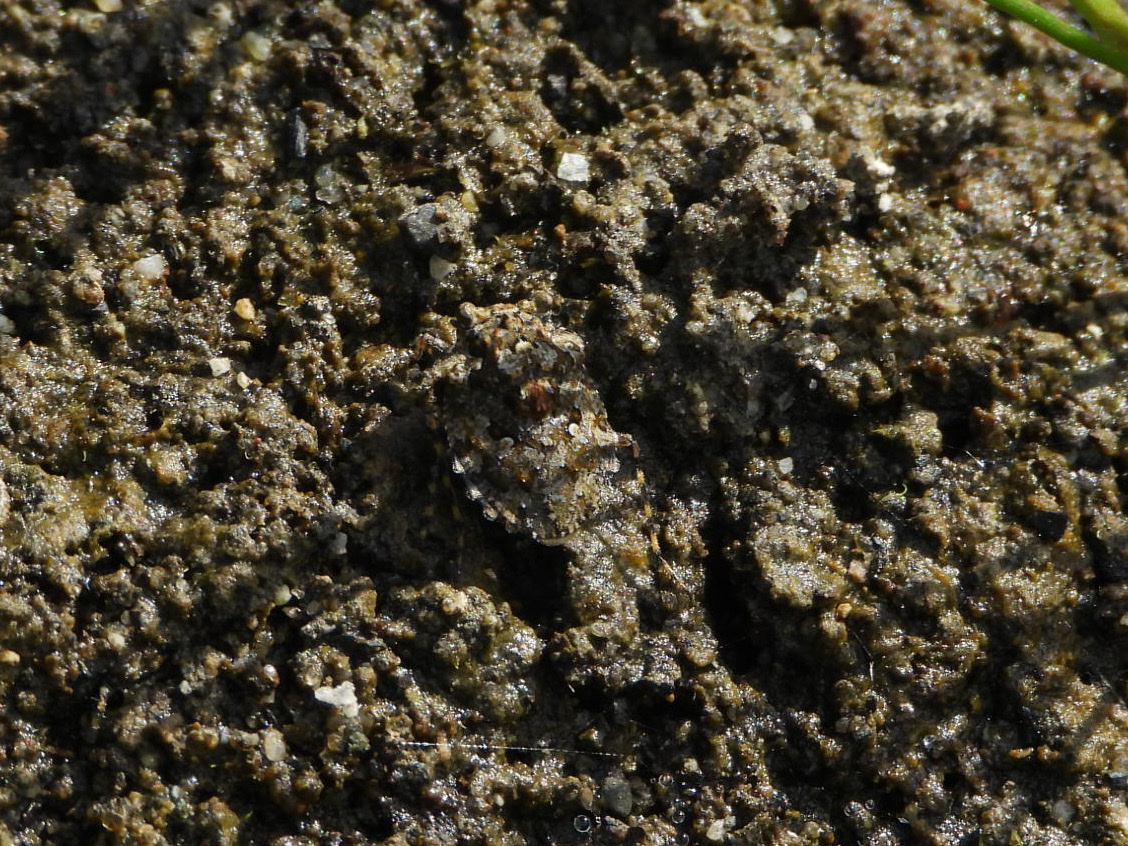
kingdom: Animalia
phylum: Arthropoda
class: Insecta
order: Hemiptera
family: Gelastocoridae
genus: Gelastocoris
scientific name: Gelastocoris oculatus
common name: Toad bug
